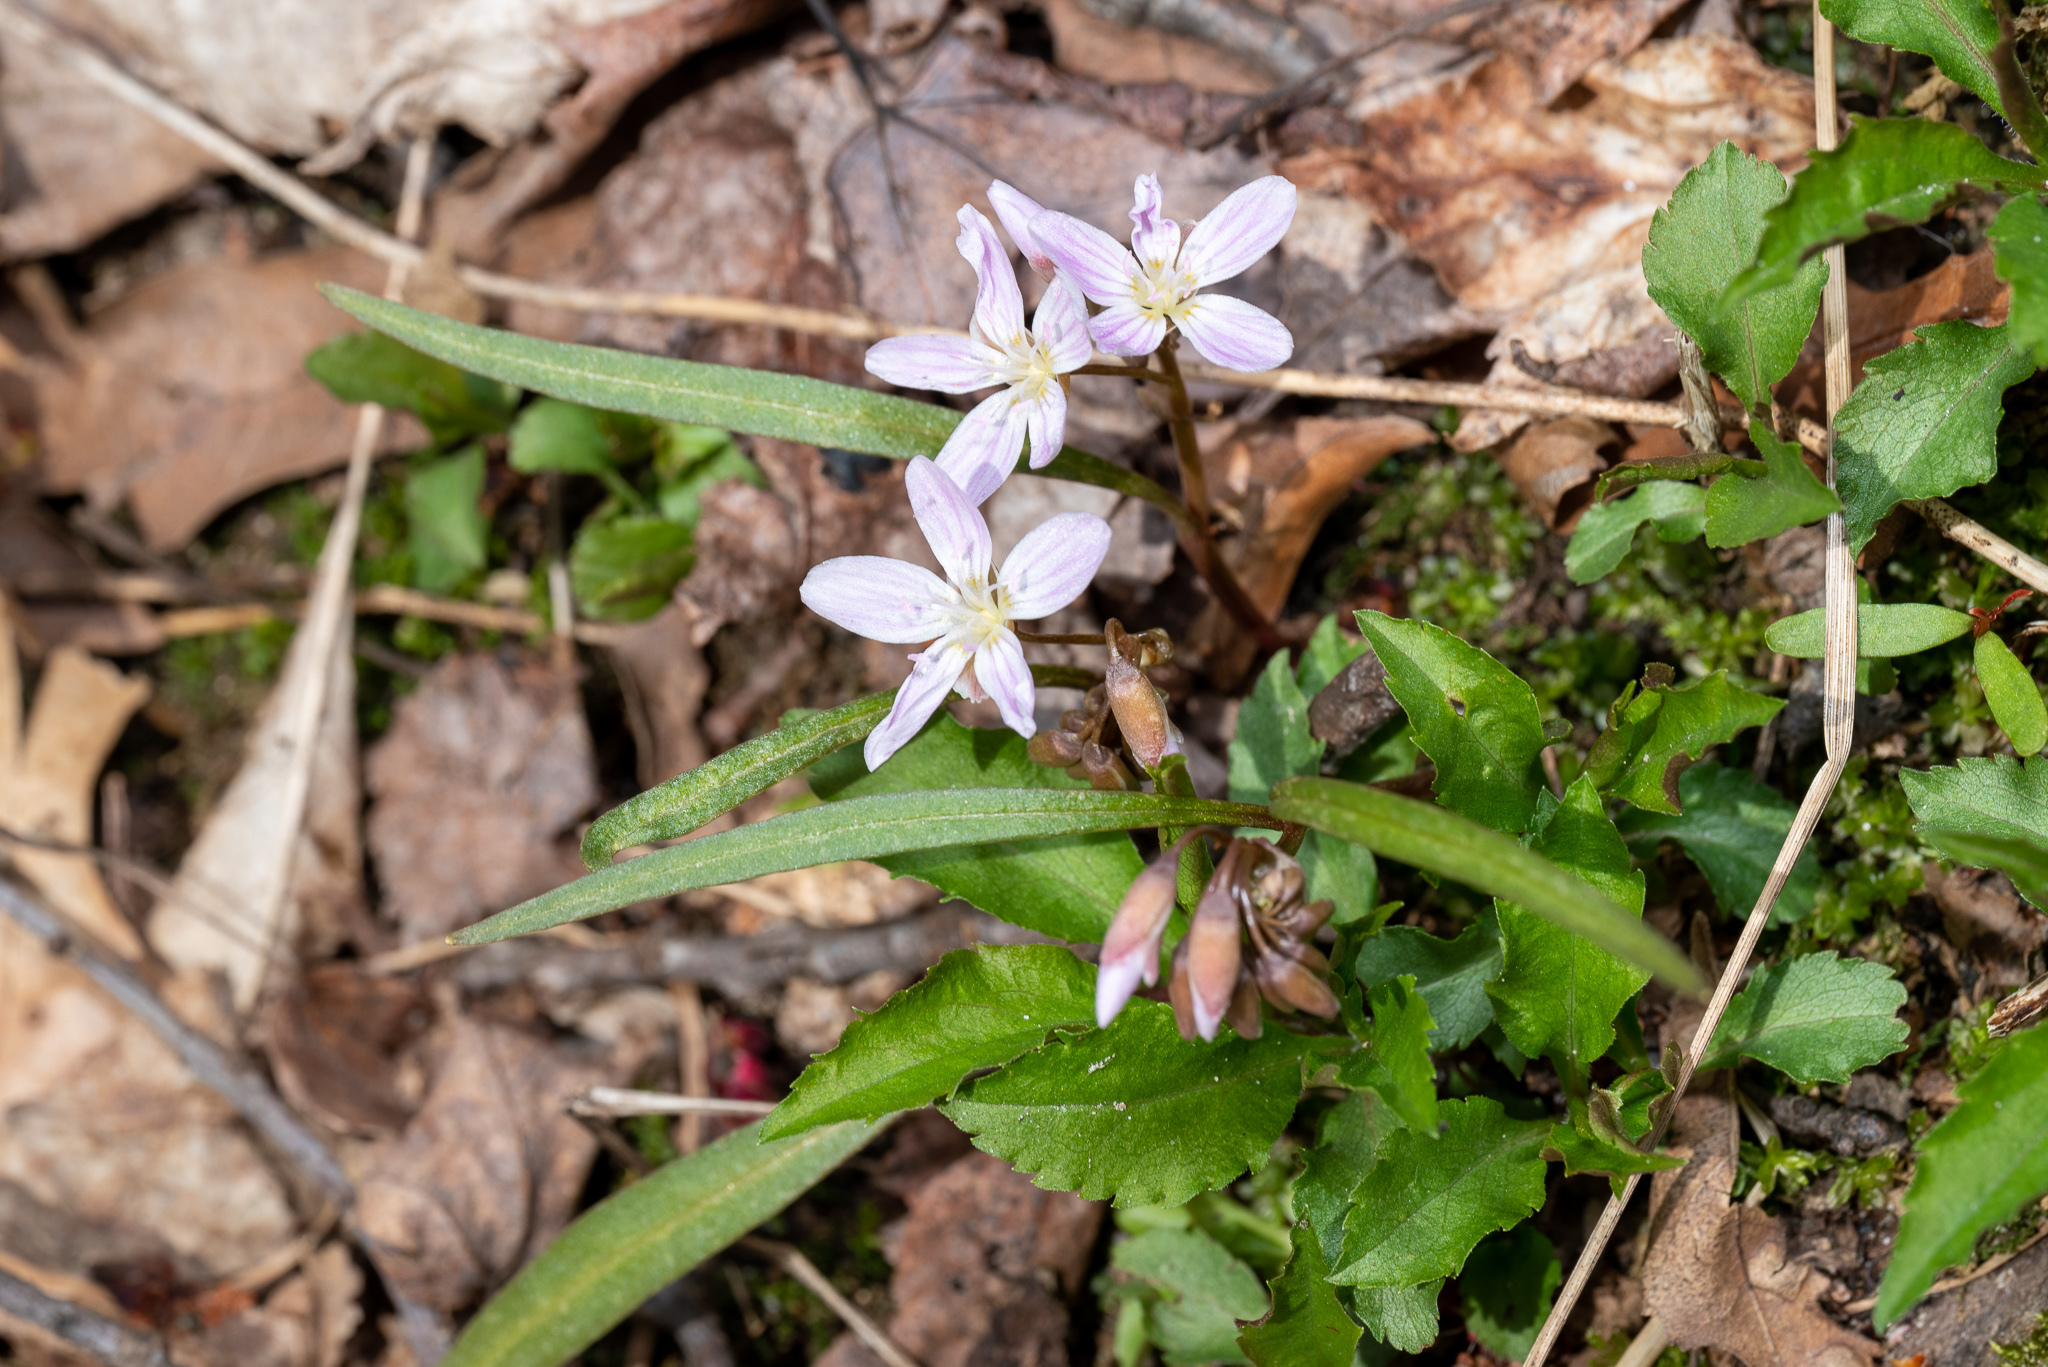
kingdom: Plantae
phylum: Tracheophyta
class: Magnoliopsida
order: Caryophyllales
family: Montiaceae
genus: Claytonia
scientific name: Claytonia virginica
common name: Virginia springbeauty
